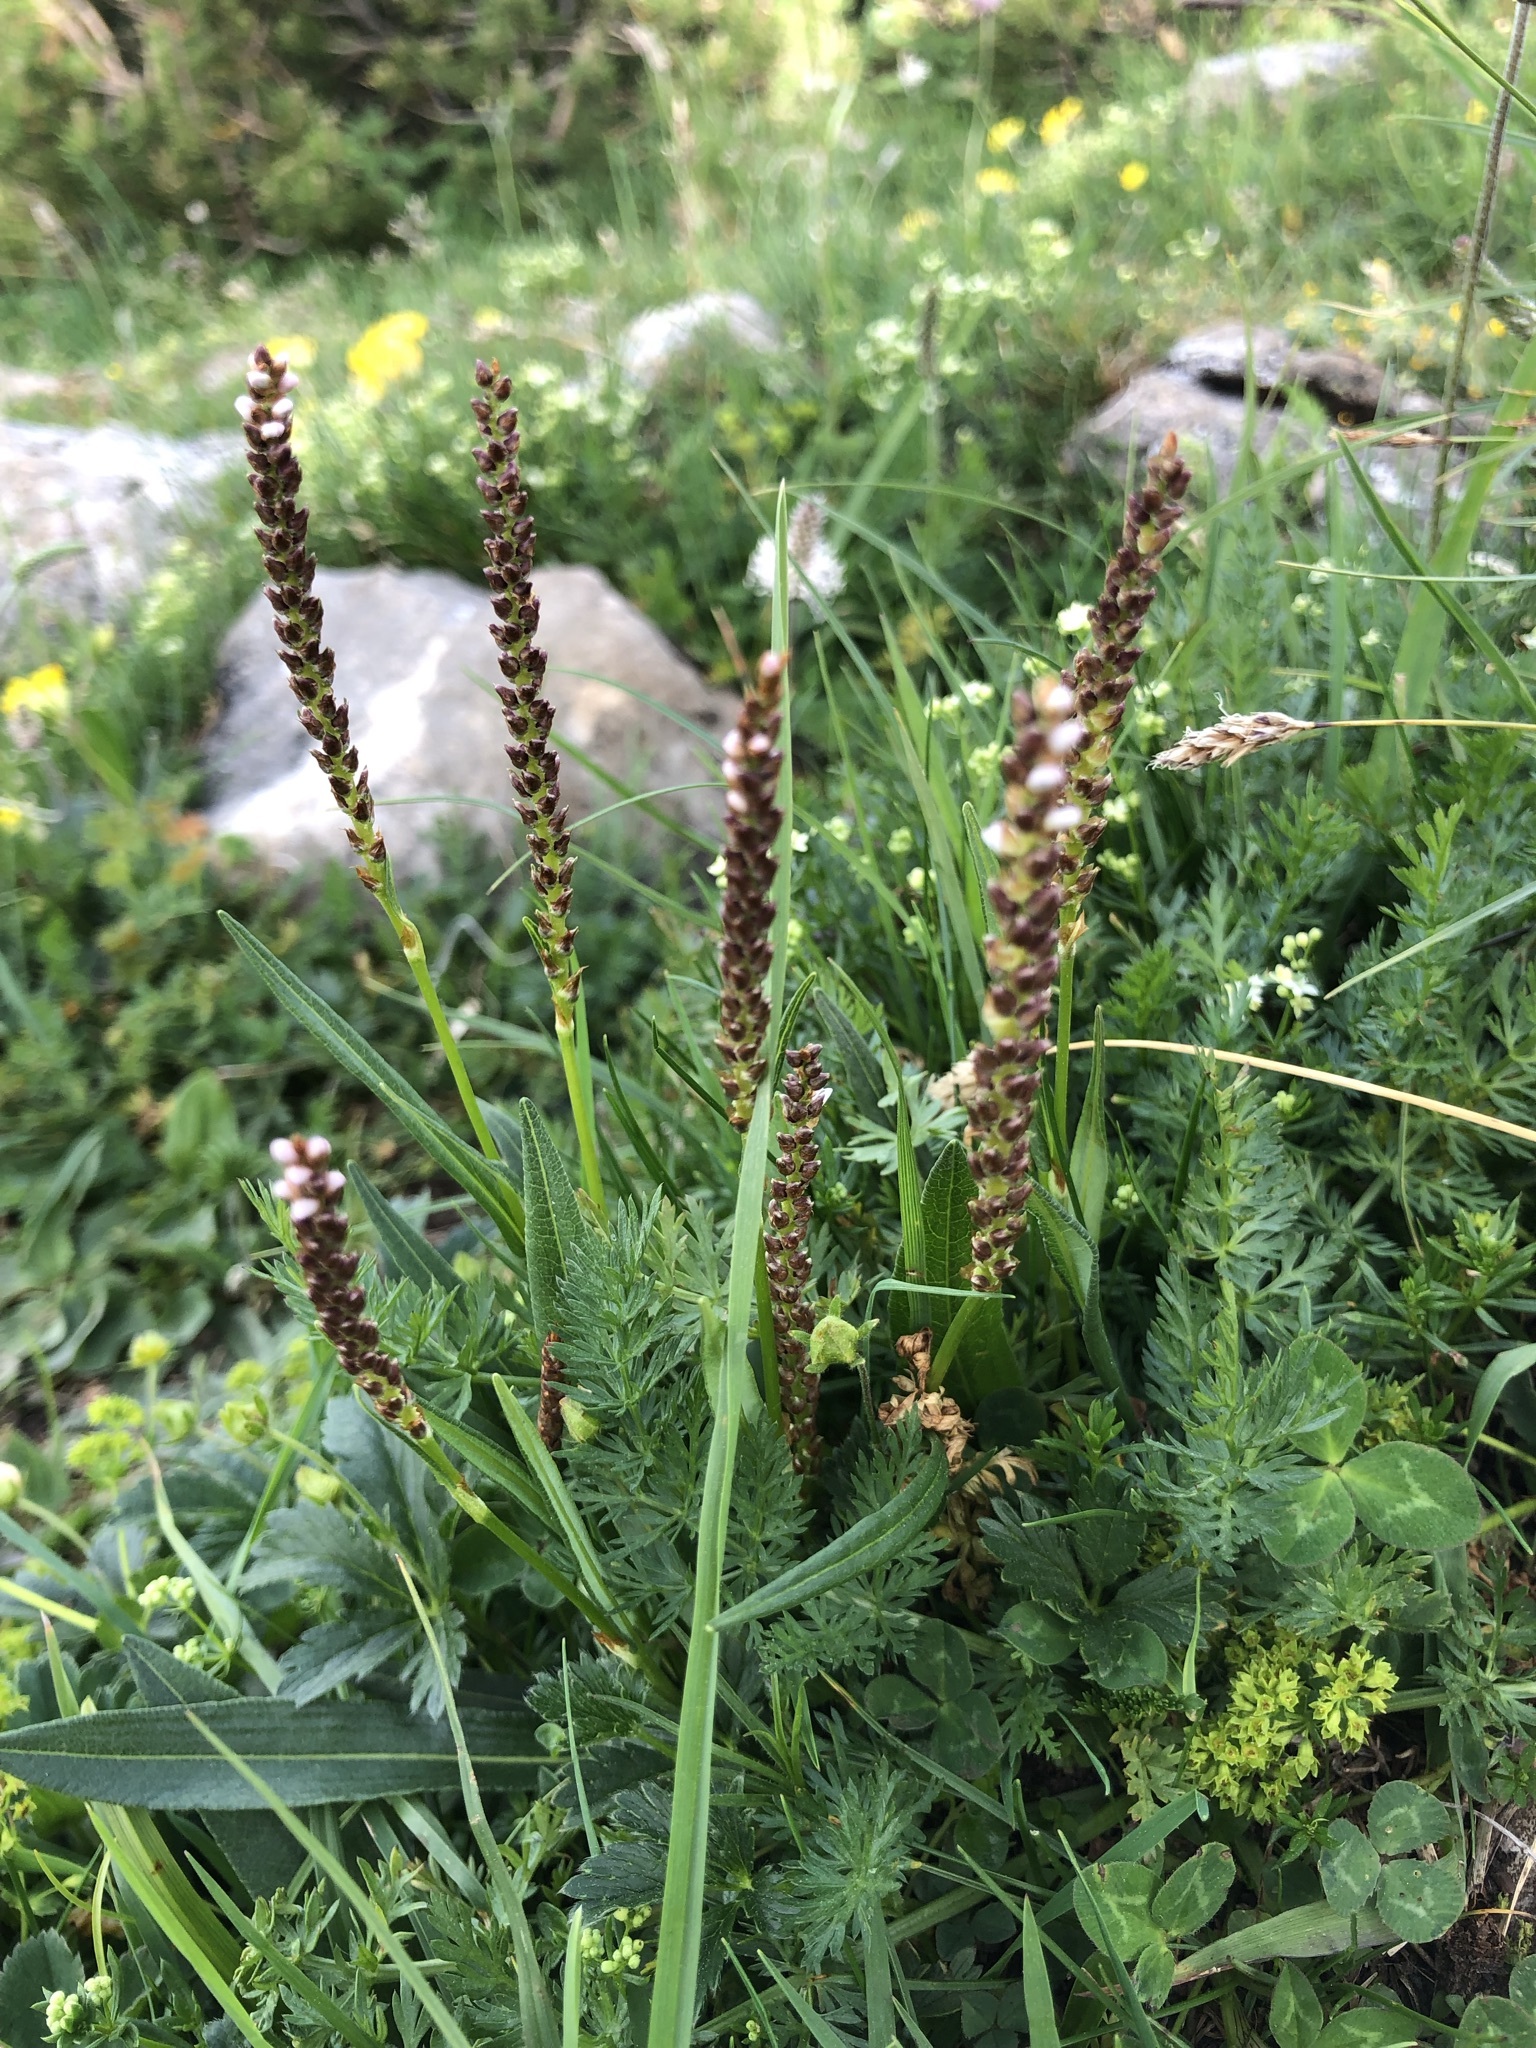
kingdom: Plantae
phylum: Tracheophyta
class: Magnoliopsida
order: Caryophyllales
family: Polygonaceae
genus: Bistorta
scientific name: Bistorta vivipara
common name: Alpine bistort
